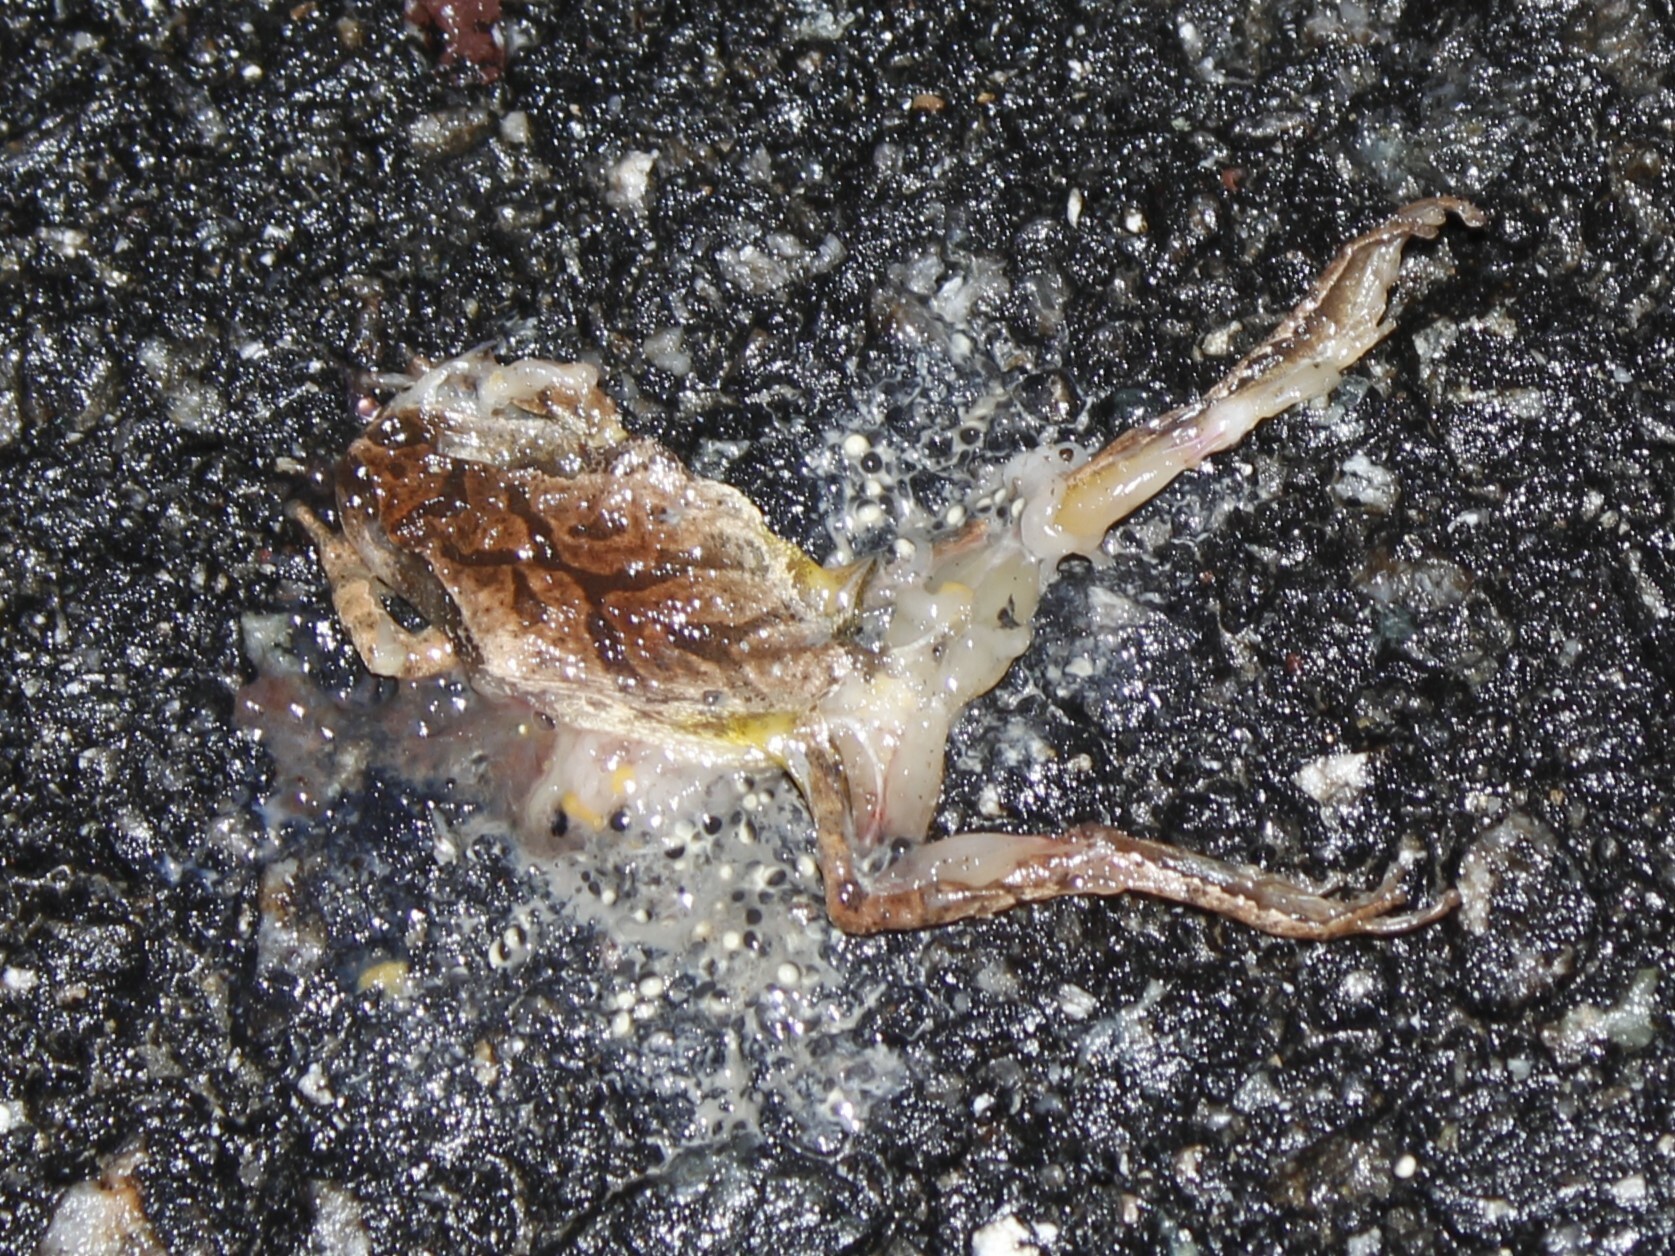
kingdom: Animalia
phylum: Chordata
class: Amphibia
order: Anura
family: Hylidae
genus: Pseudacris
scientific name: Pseudacris crucifer
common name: Spring peeper
